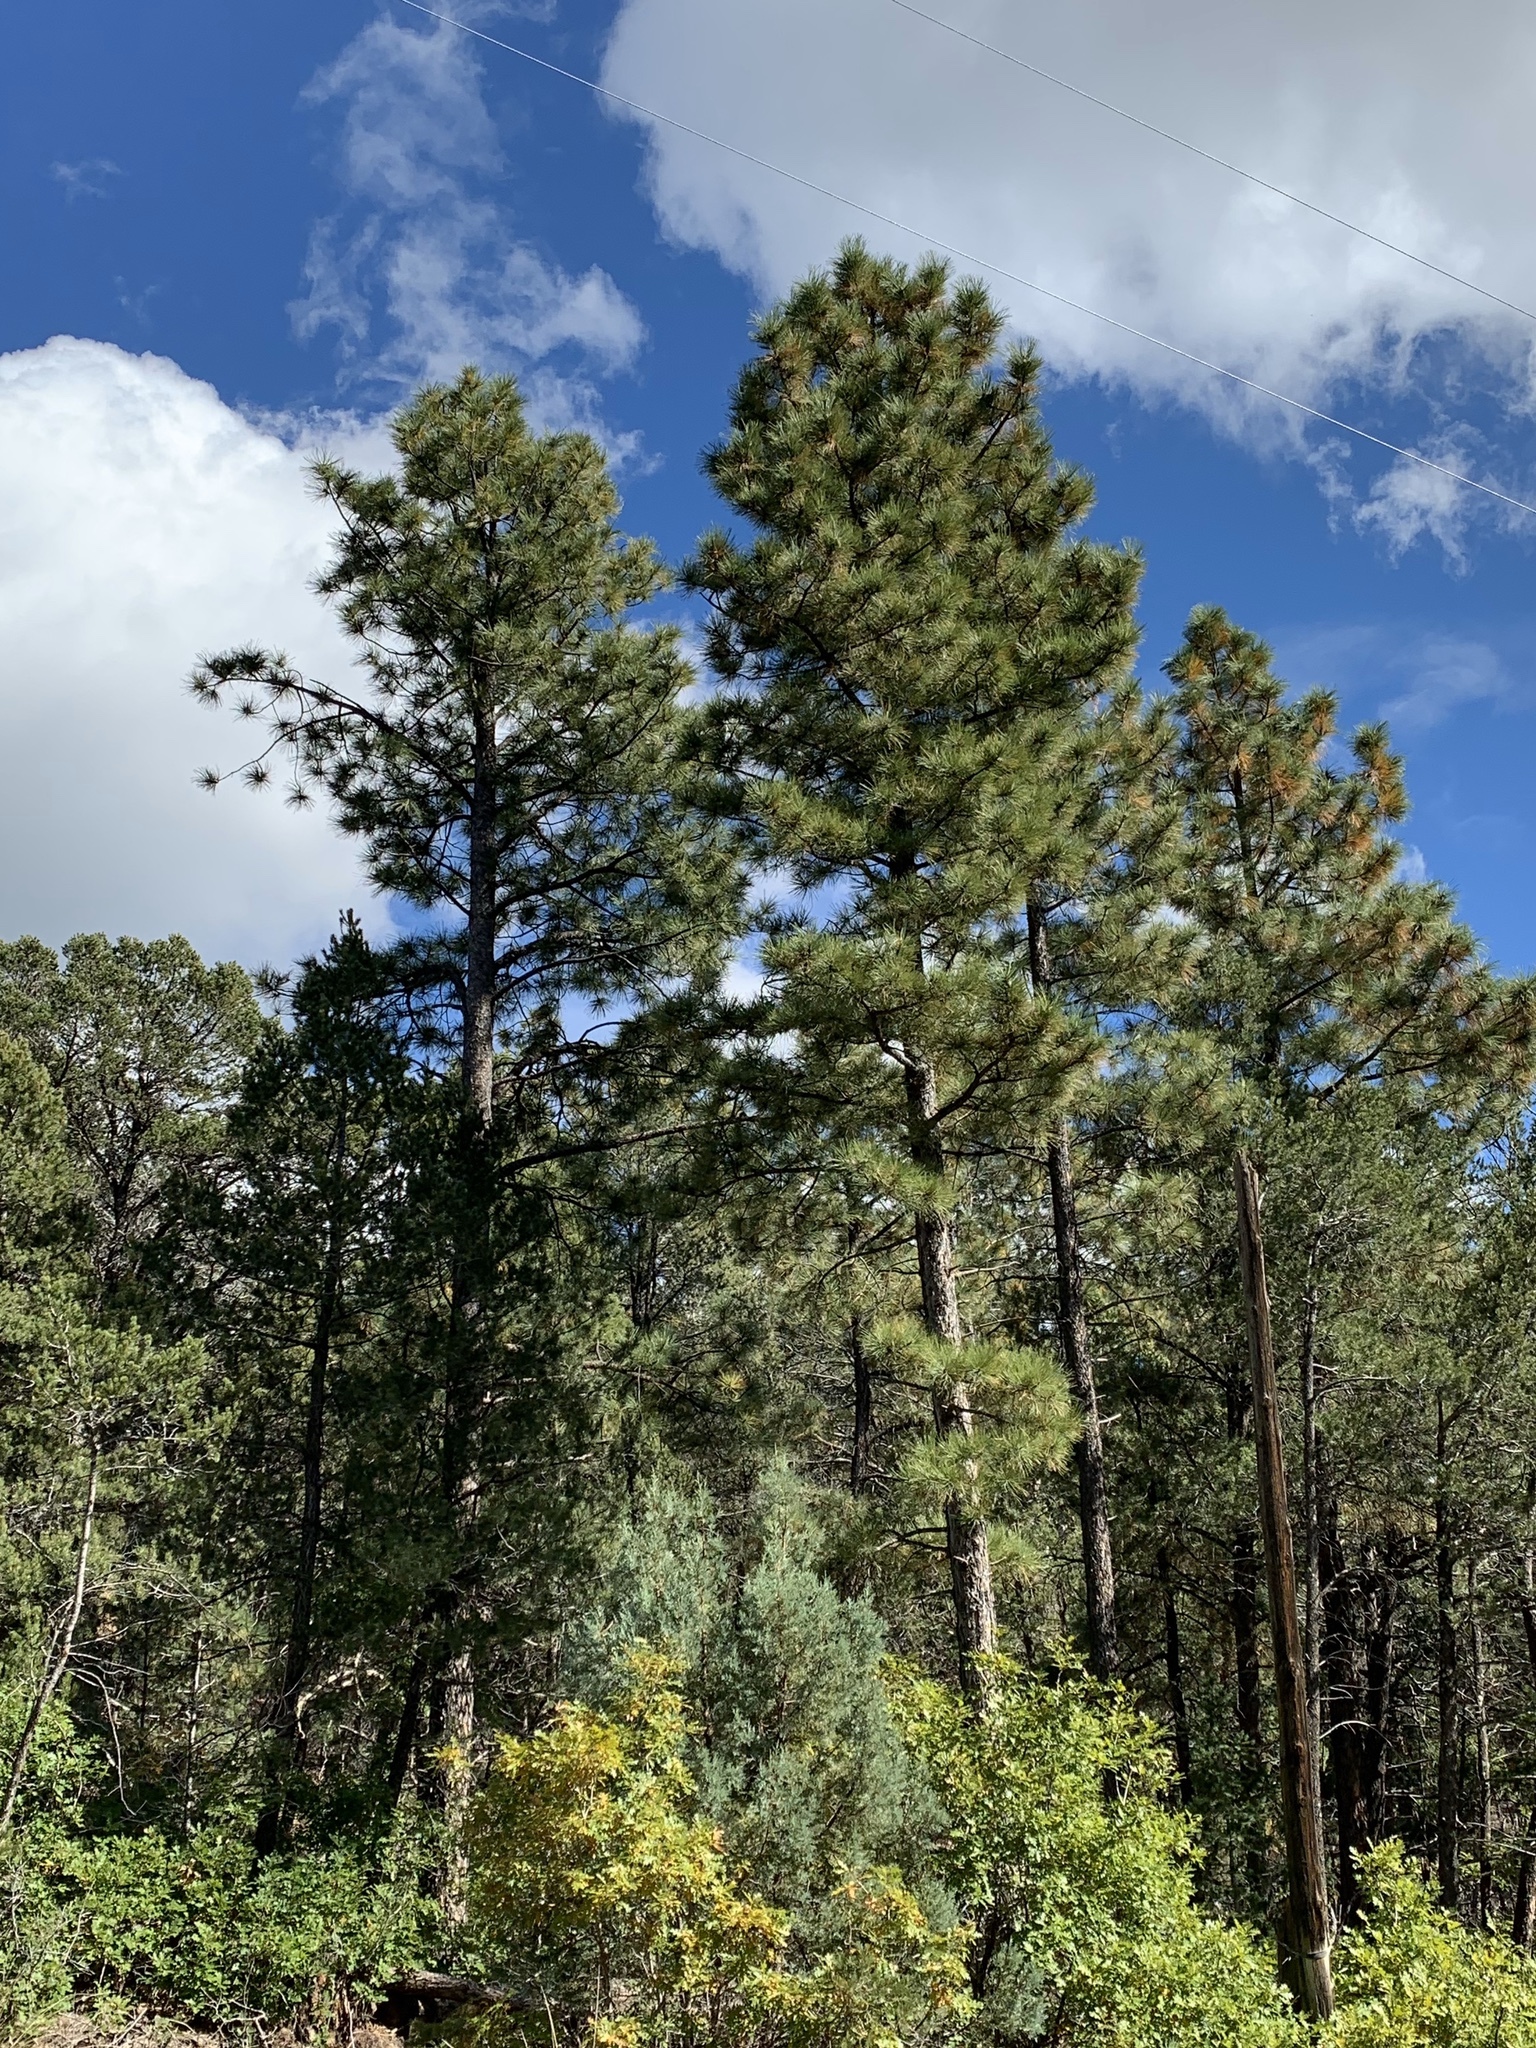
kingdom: Plantae
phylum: Tracheophyta
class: Pinopsida
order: Pinales
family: Pinaceae
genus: Pinus
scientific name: Pinus ponderosa
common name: Western yellow-pine
